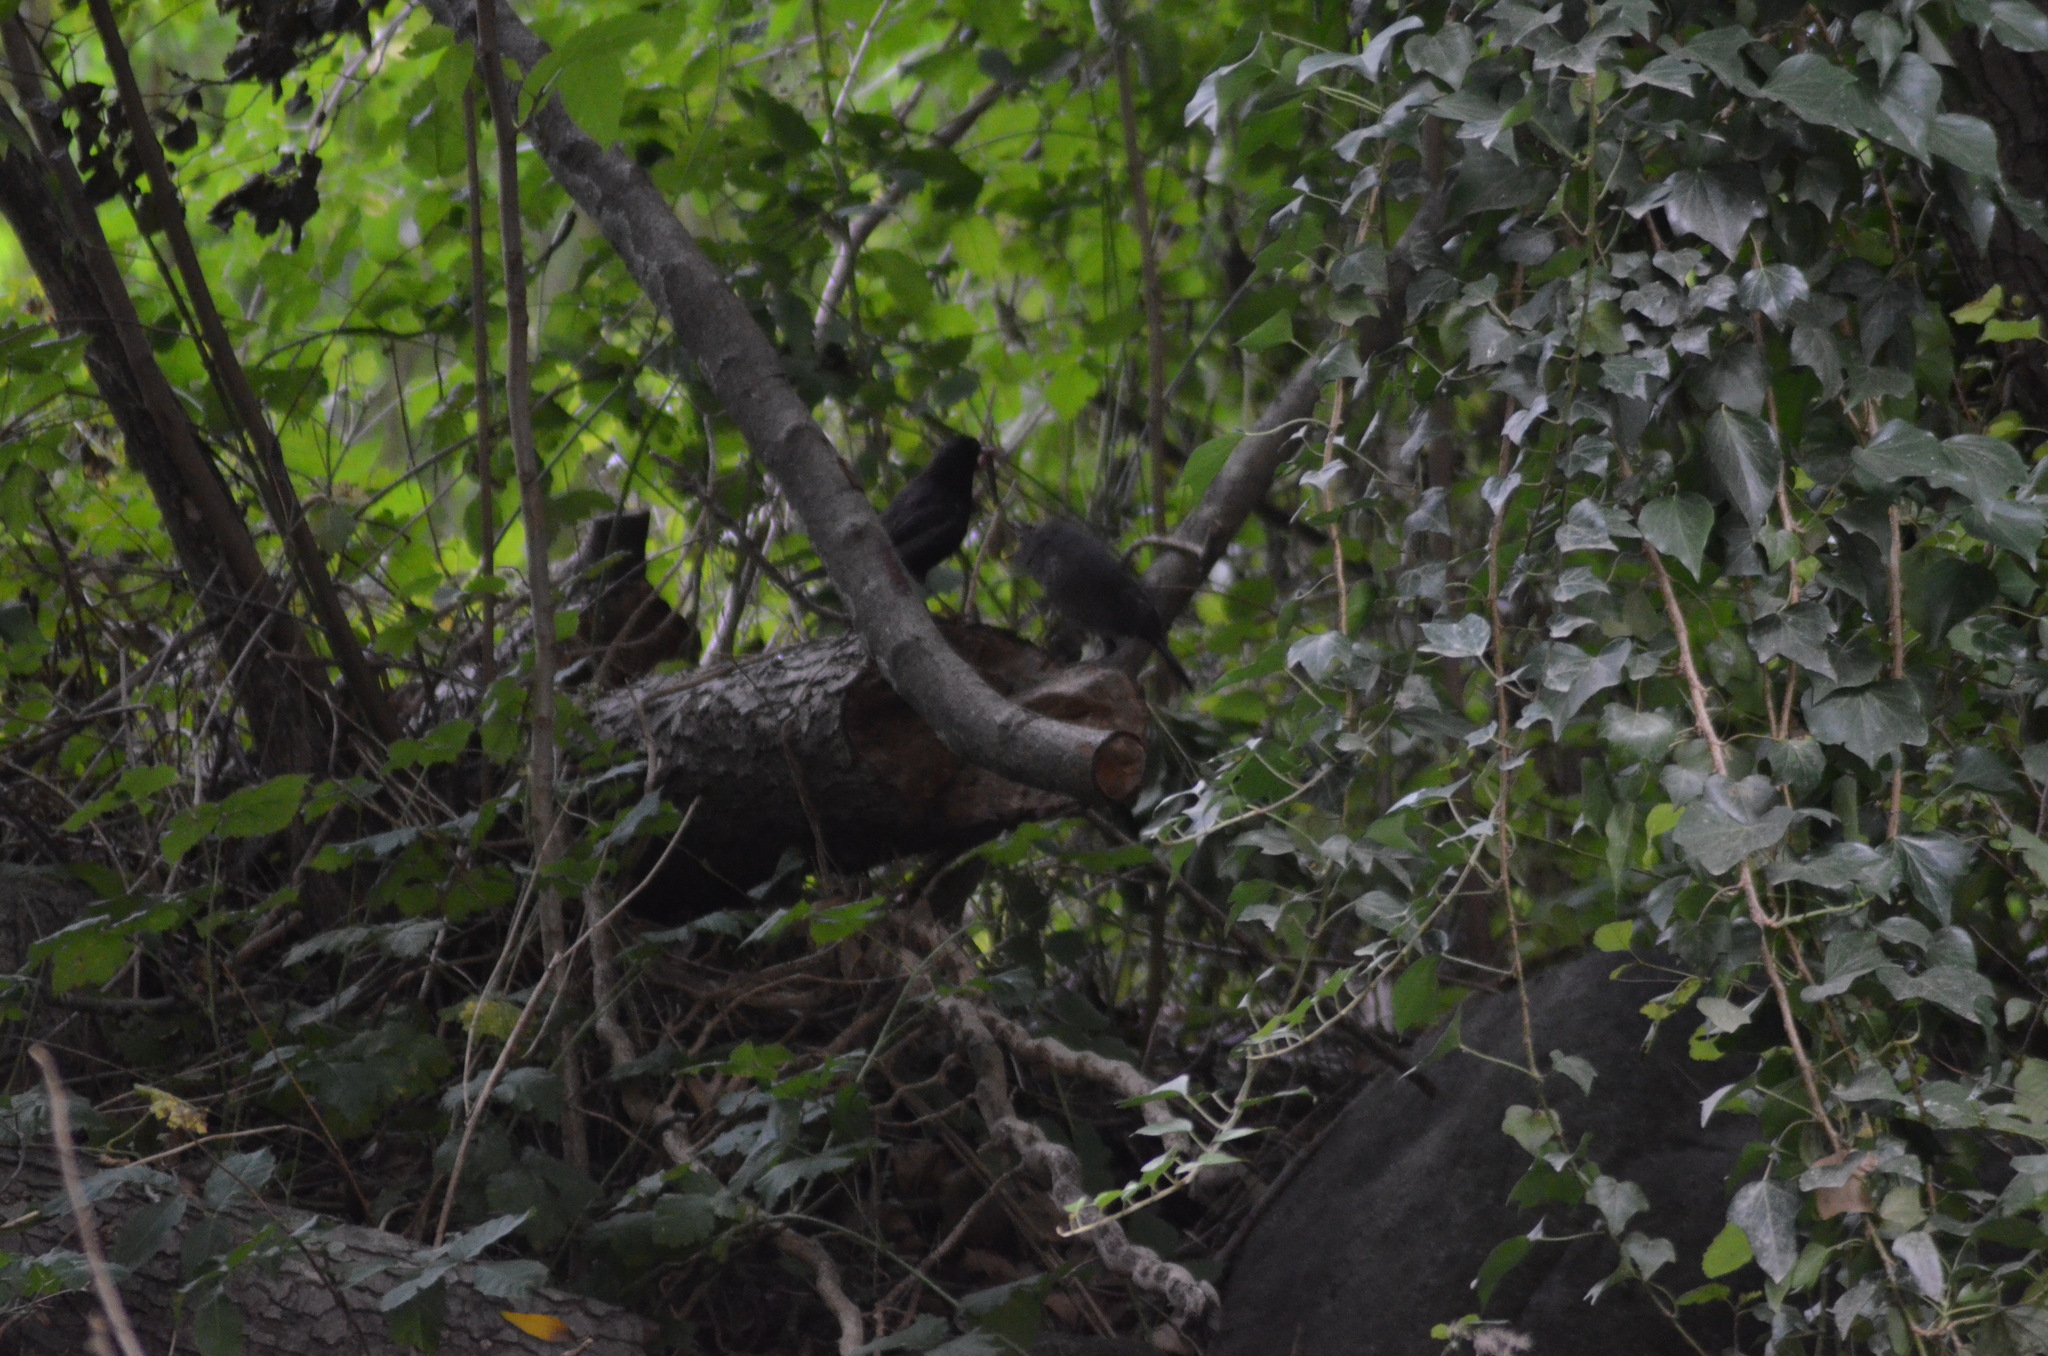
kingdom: Animalia
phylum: Chordata
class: Aves
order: Passeriformes
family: Turdidae
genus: Turdus
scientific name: Turdus merula
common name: Common blackbird
